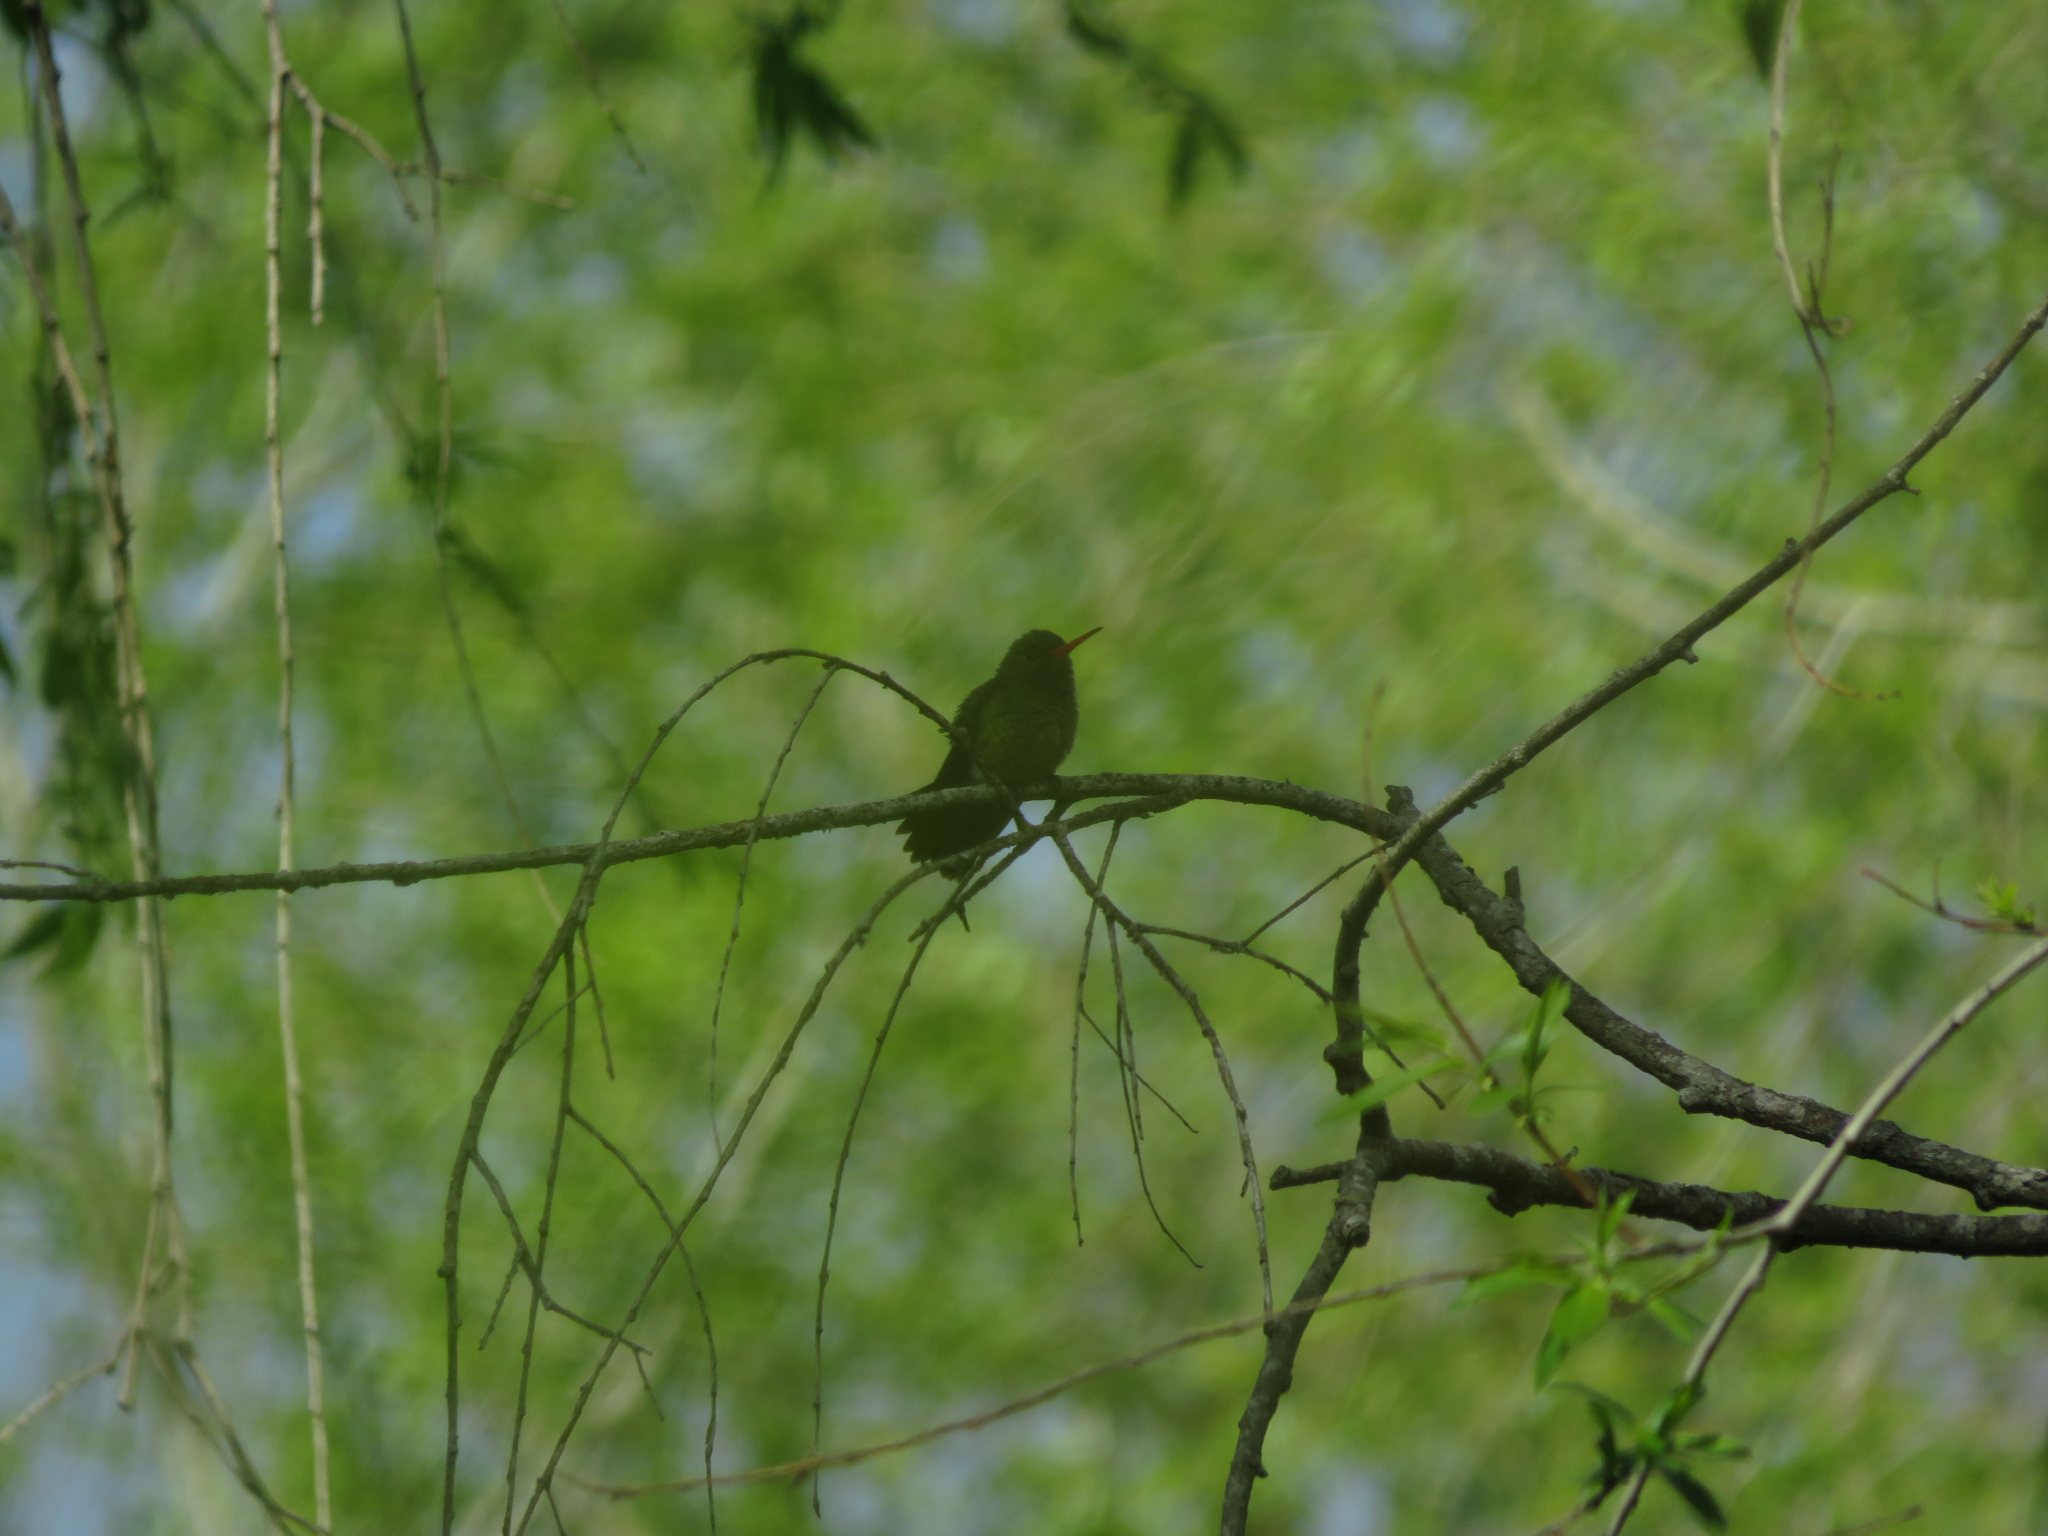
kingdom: Animalia
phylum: Chordata
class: Aves
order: Apodiformes
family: Trochilidae
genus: Hylocharis
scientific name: Hylocharis chrysura
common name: Gilded sapphire
